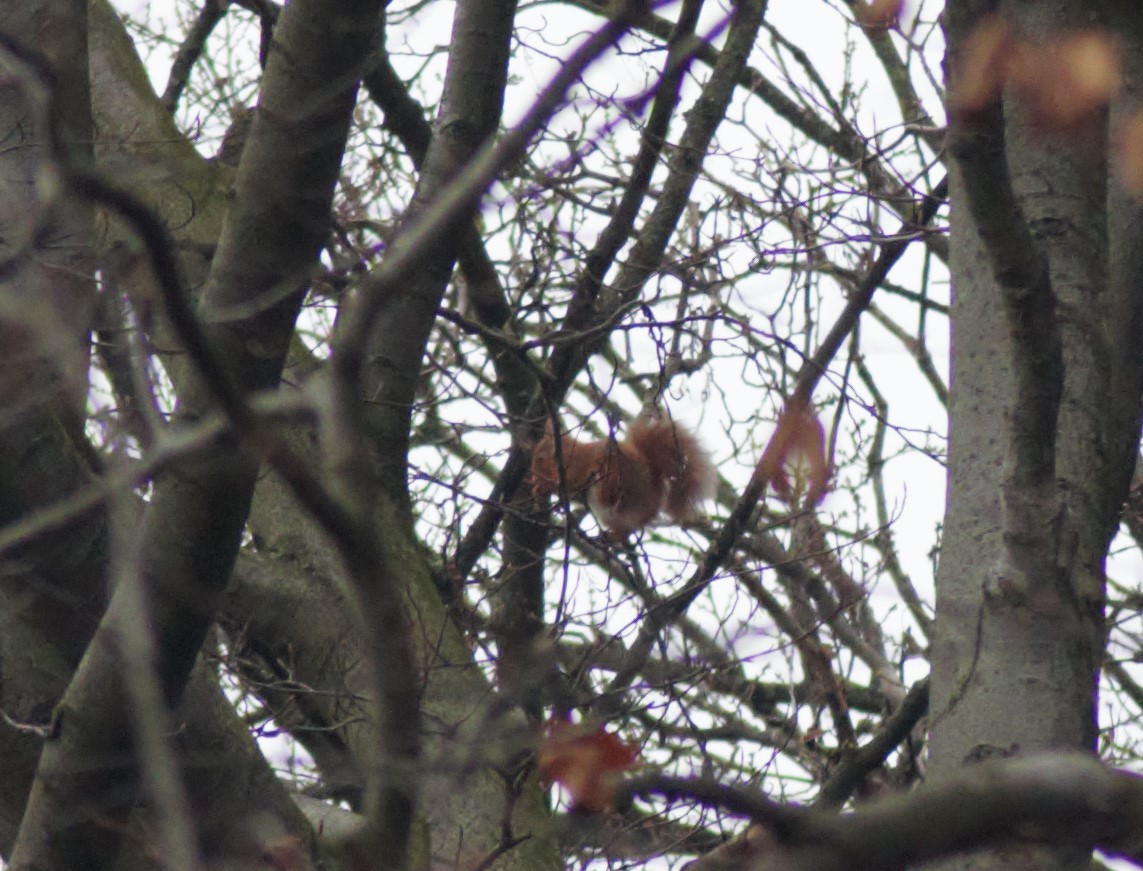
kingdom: Animalia
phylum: Chordata
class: Mammalia
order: Rodentia
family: Sciuridae
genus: Sciurus
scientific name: Sciurus vulgaris
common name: Eurasian red squirrel
